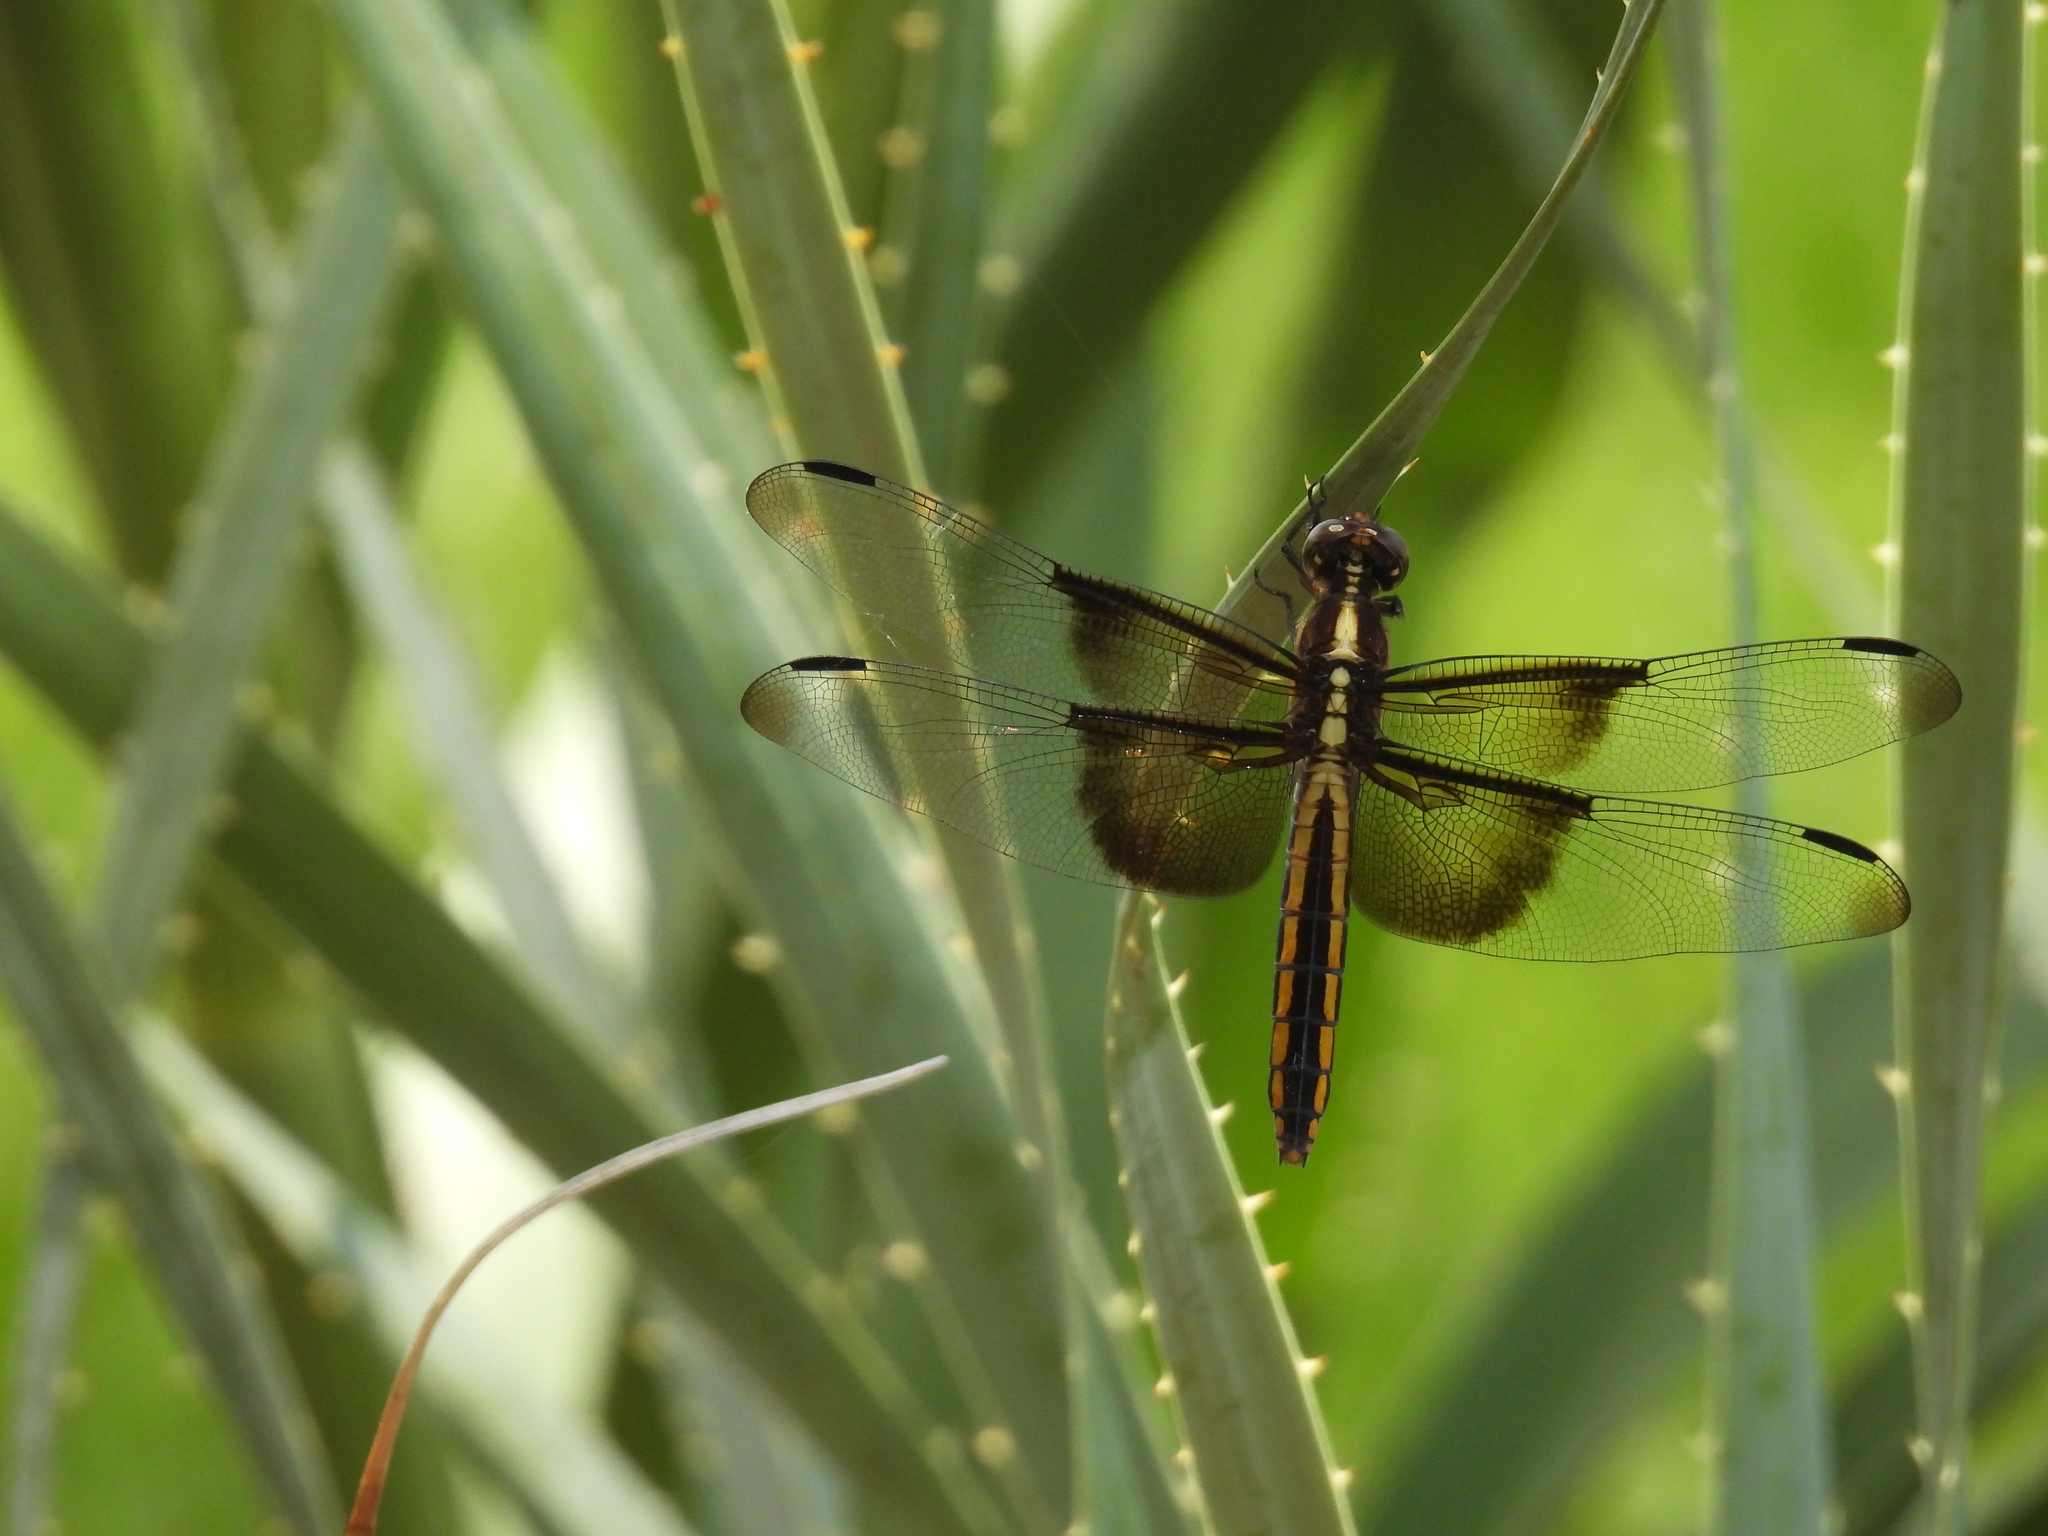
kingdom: Animalia
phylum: Arthropoda
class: Insecta
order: Odonata
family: Libellulidae
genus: Libellula
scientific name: Libellula luctuosa
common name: Widow skimmer
